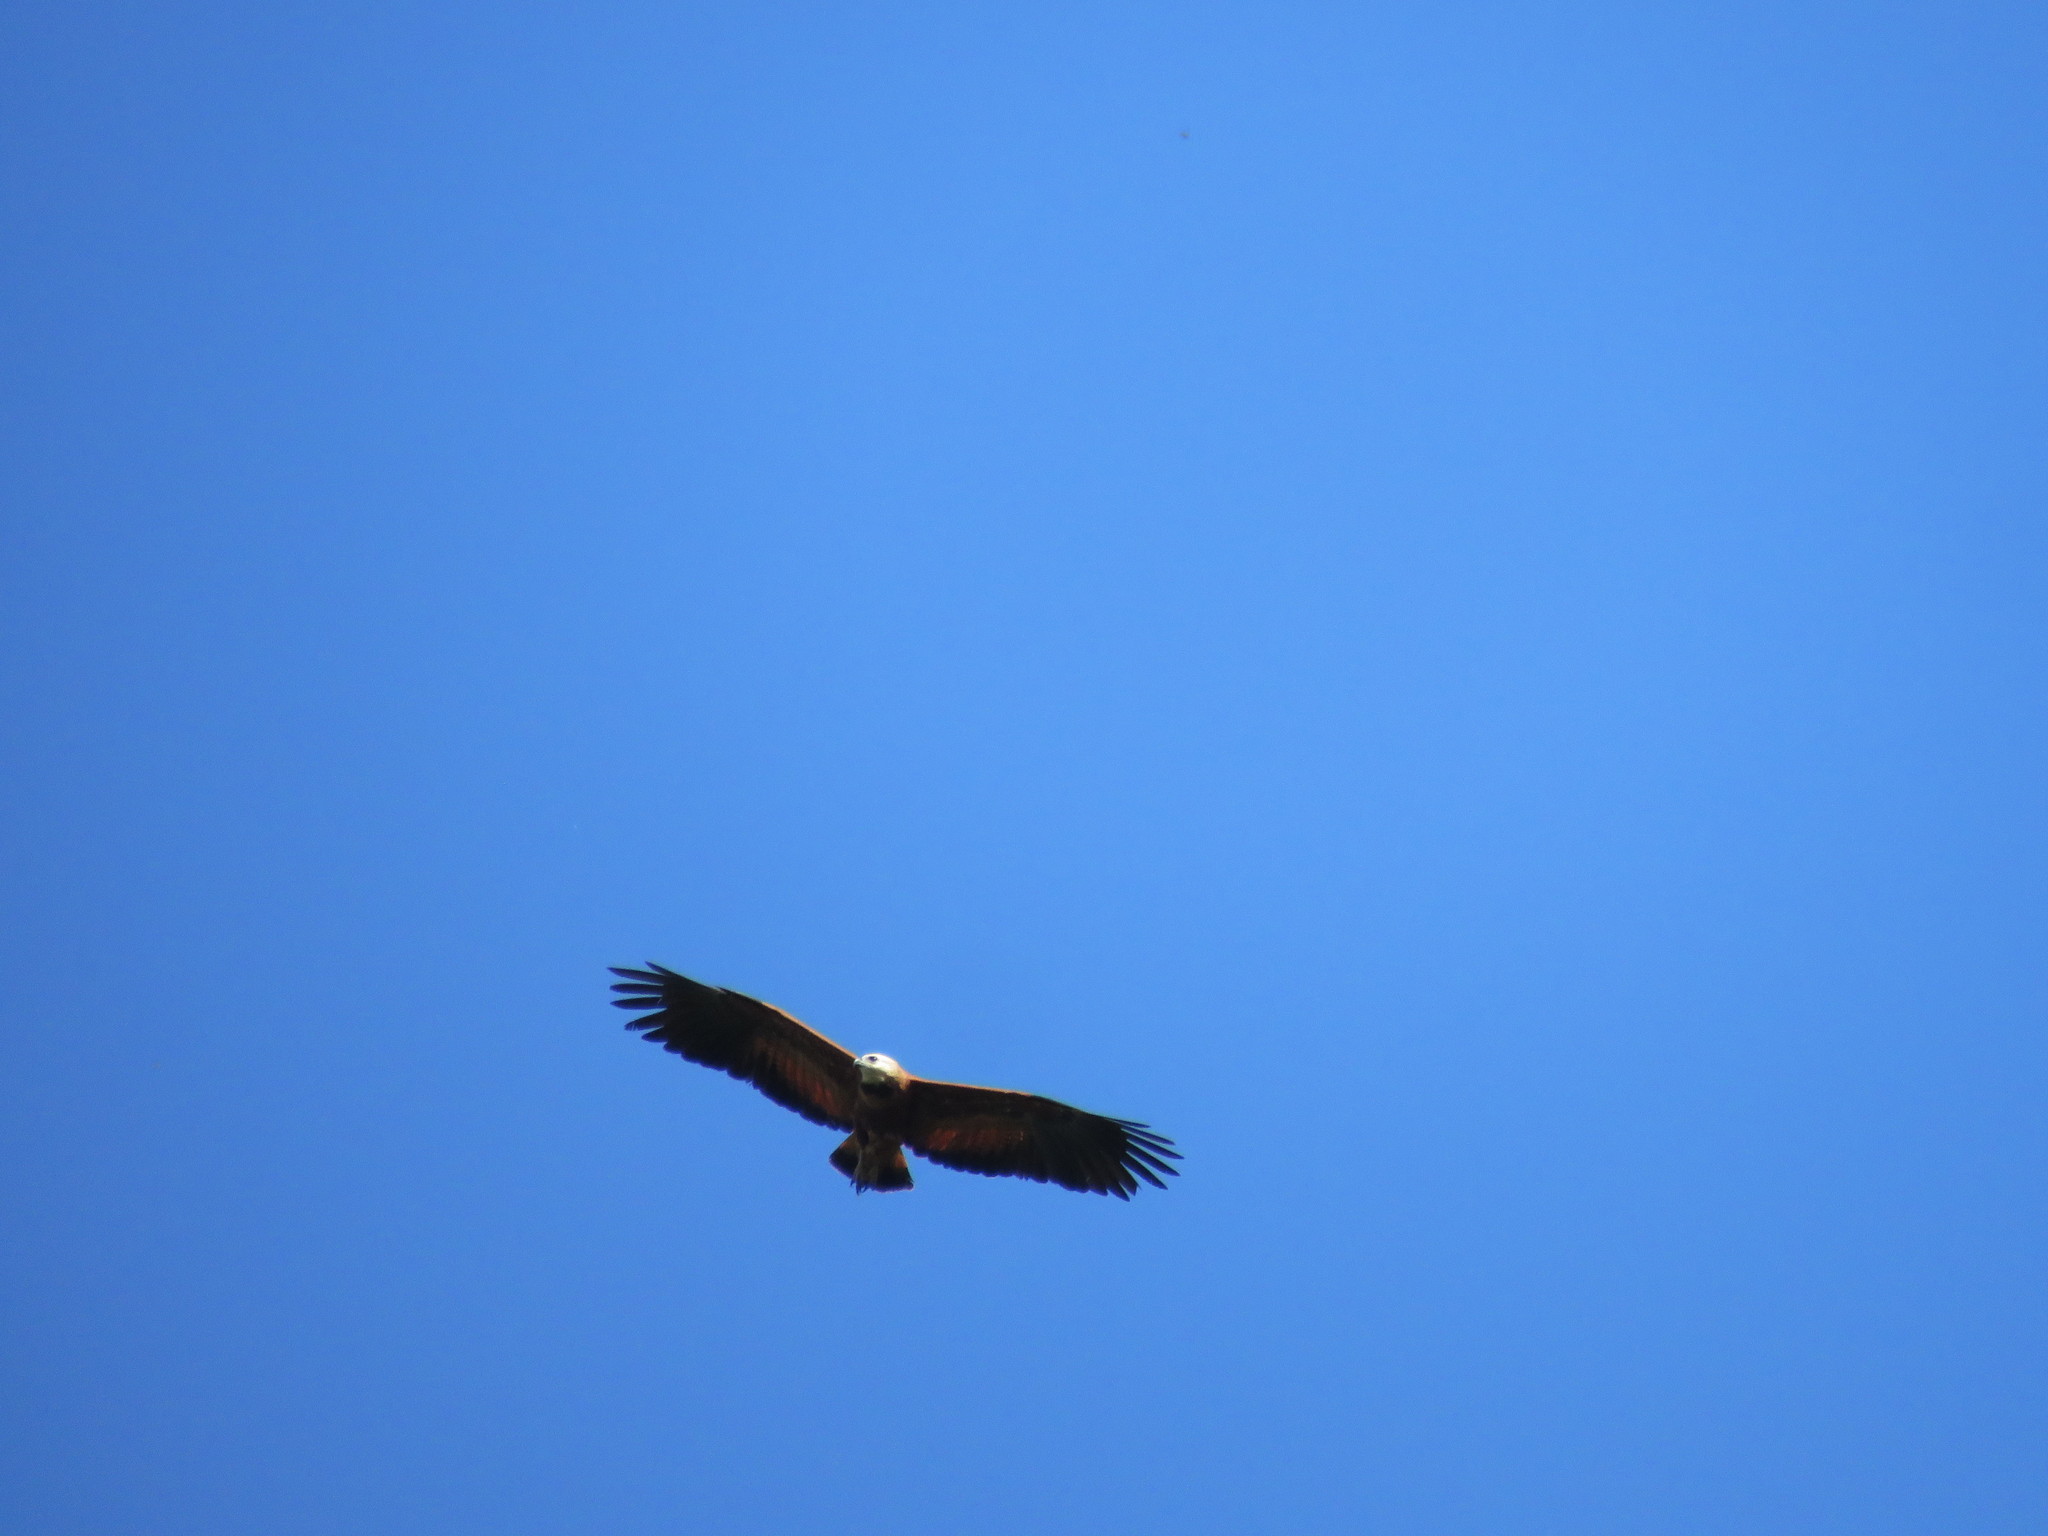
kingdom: Animalia
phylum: Chordata
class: Aves
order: Accipitriformes
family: Accipitridae
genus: Busarellus
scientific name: Busarellus nigricollis
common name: Black-collared hawk
